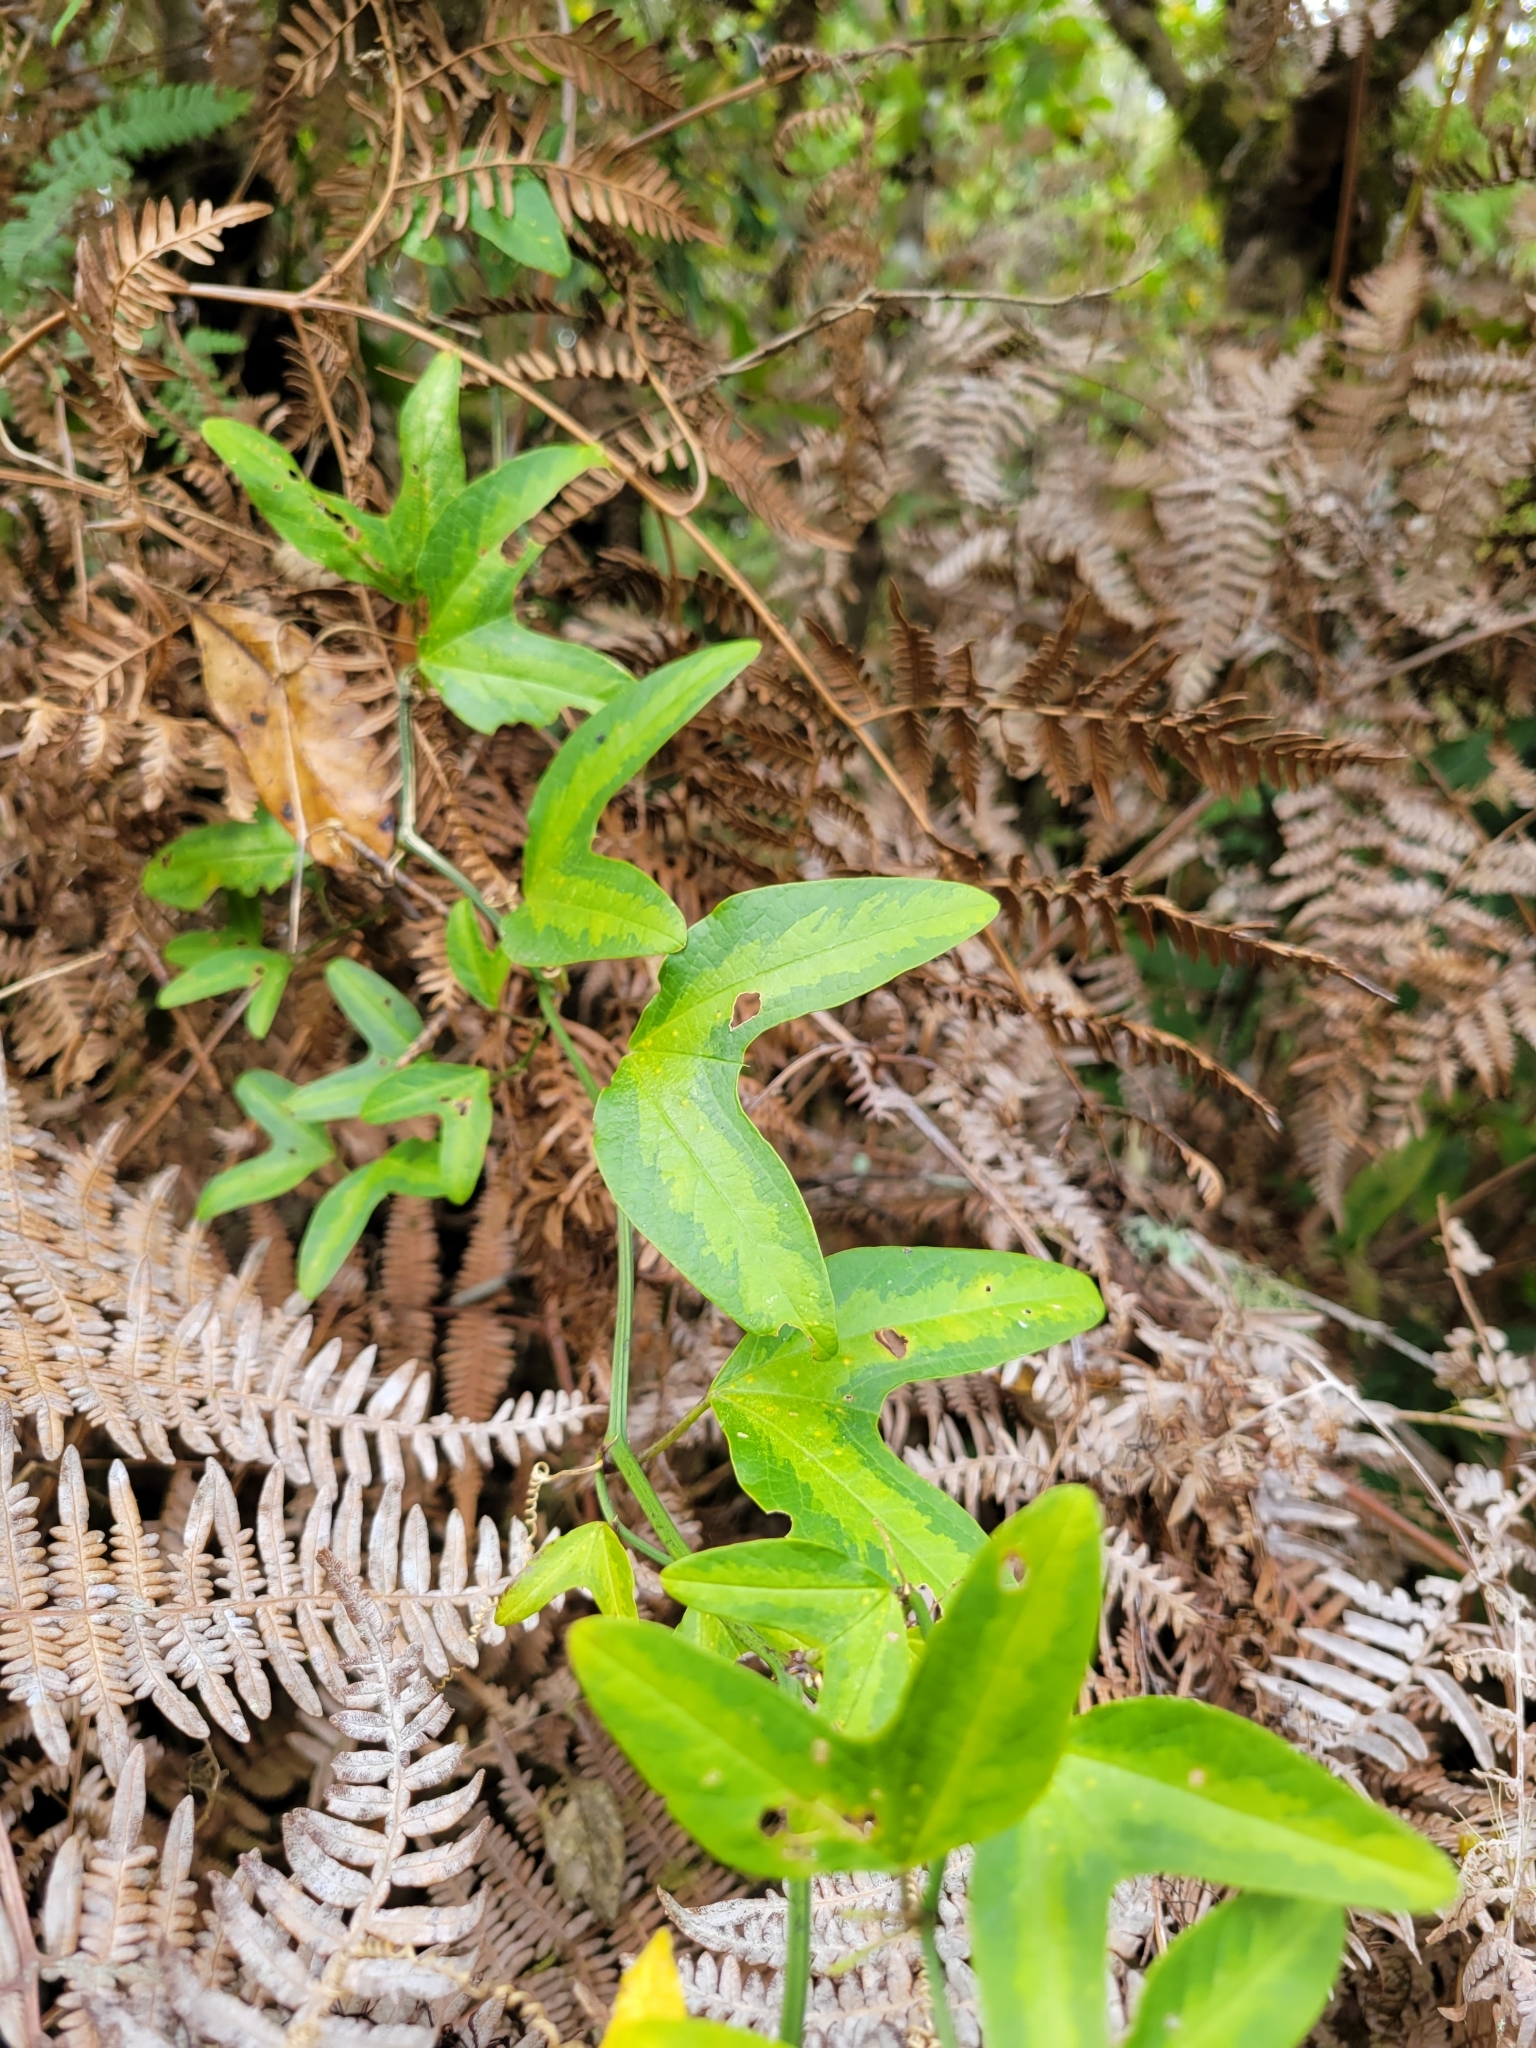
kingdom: Plantae
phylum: Tracheophyta
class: Magnoliopsida
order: Malpighiales
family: Passifloraceae
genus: Passiflora
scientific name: Passiflora apetala
